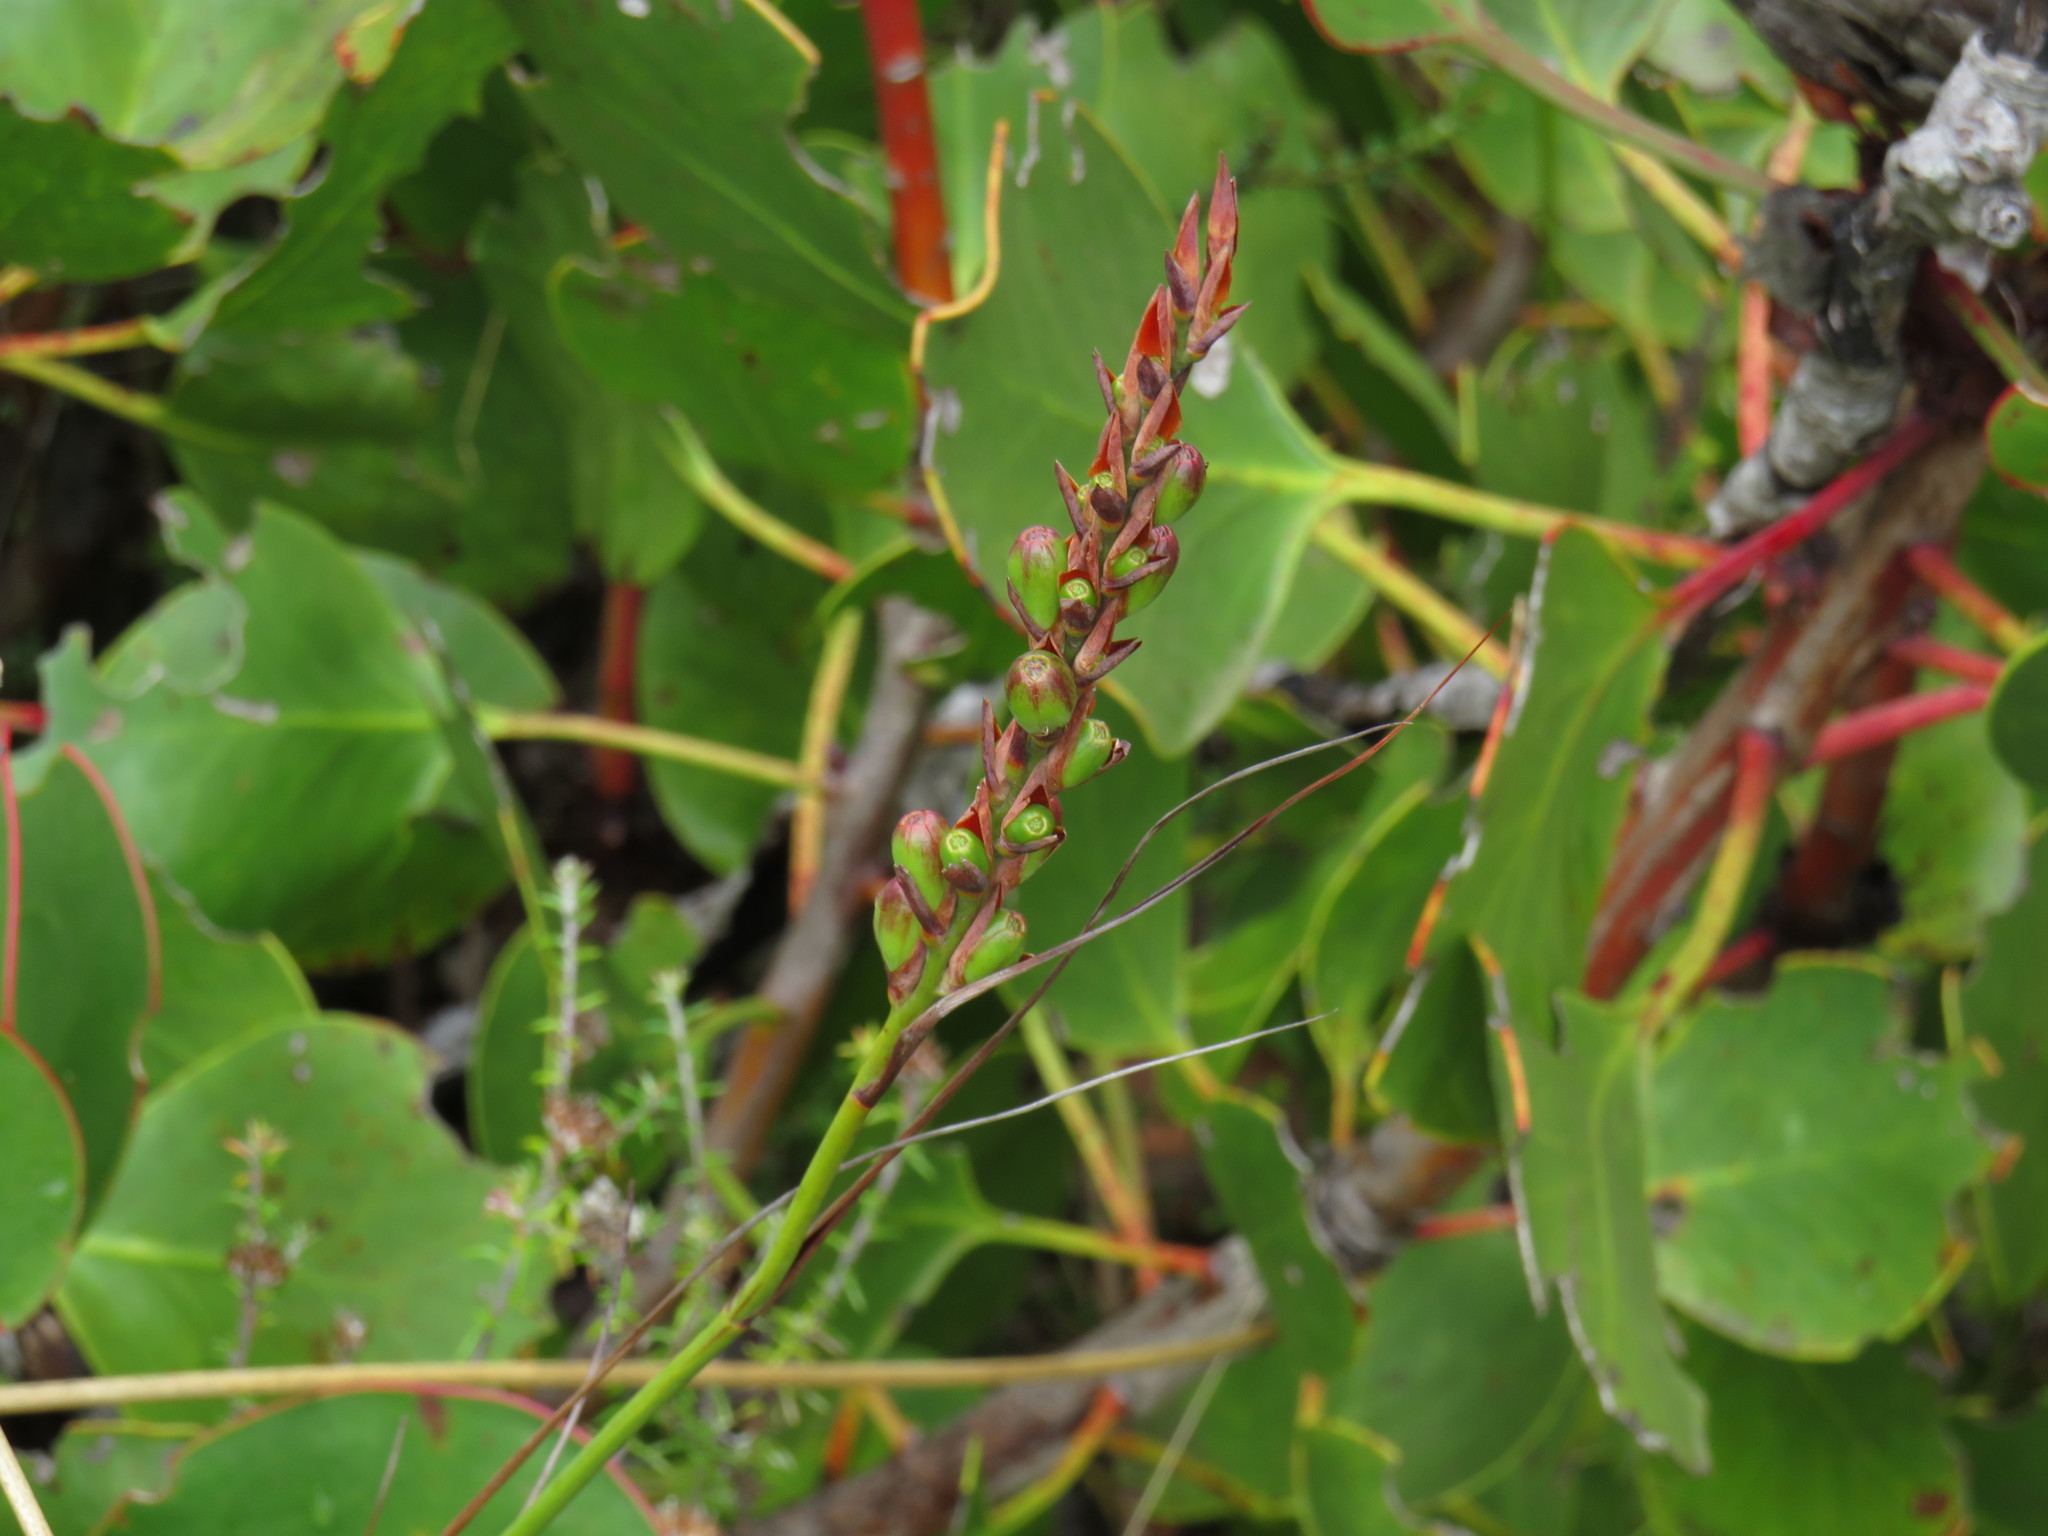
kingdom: Plantae
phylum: Tracheophyta
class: Liliopsida
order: Asparagales
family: Iridaceae
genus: Tritoniopsis
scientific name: Tritoniopsis triticea
